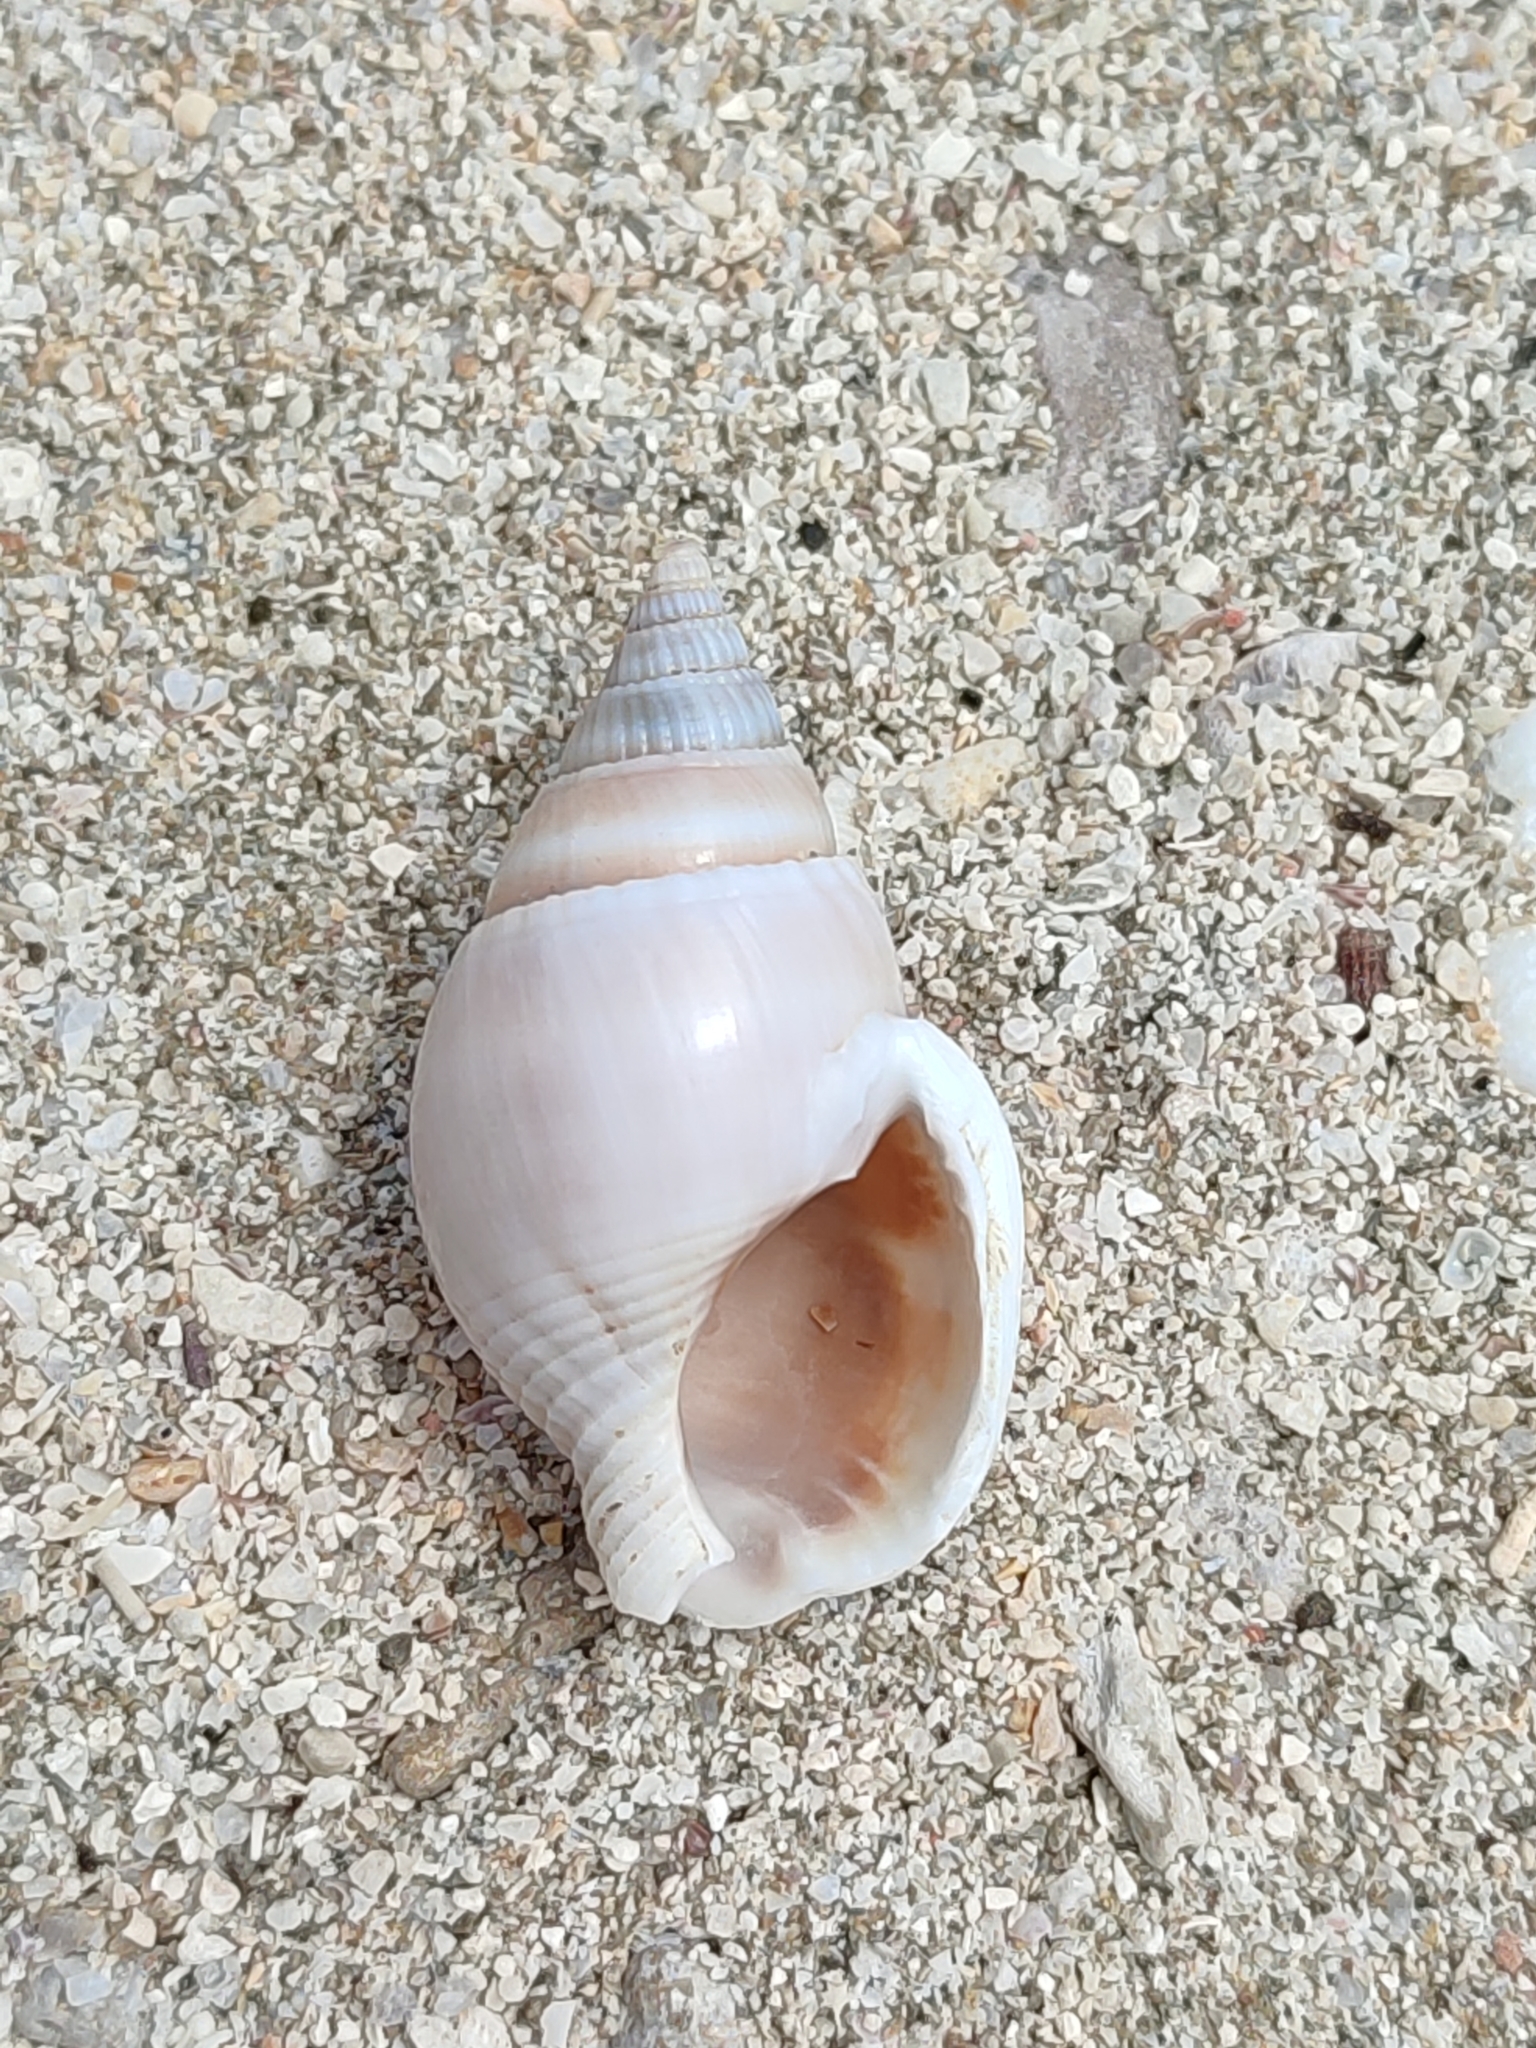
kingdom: Animalia
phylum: Mollusca
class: Gastropoda
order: Neogastropoda
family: Nassariidae
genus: Nassarius
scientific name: Nassarius olivaceus
